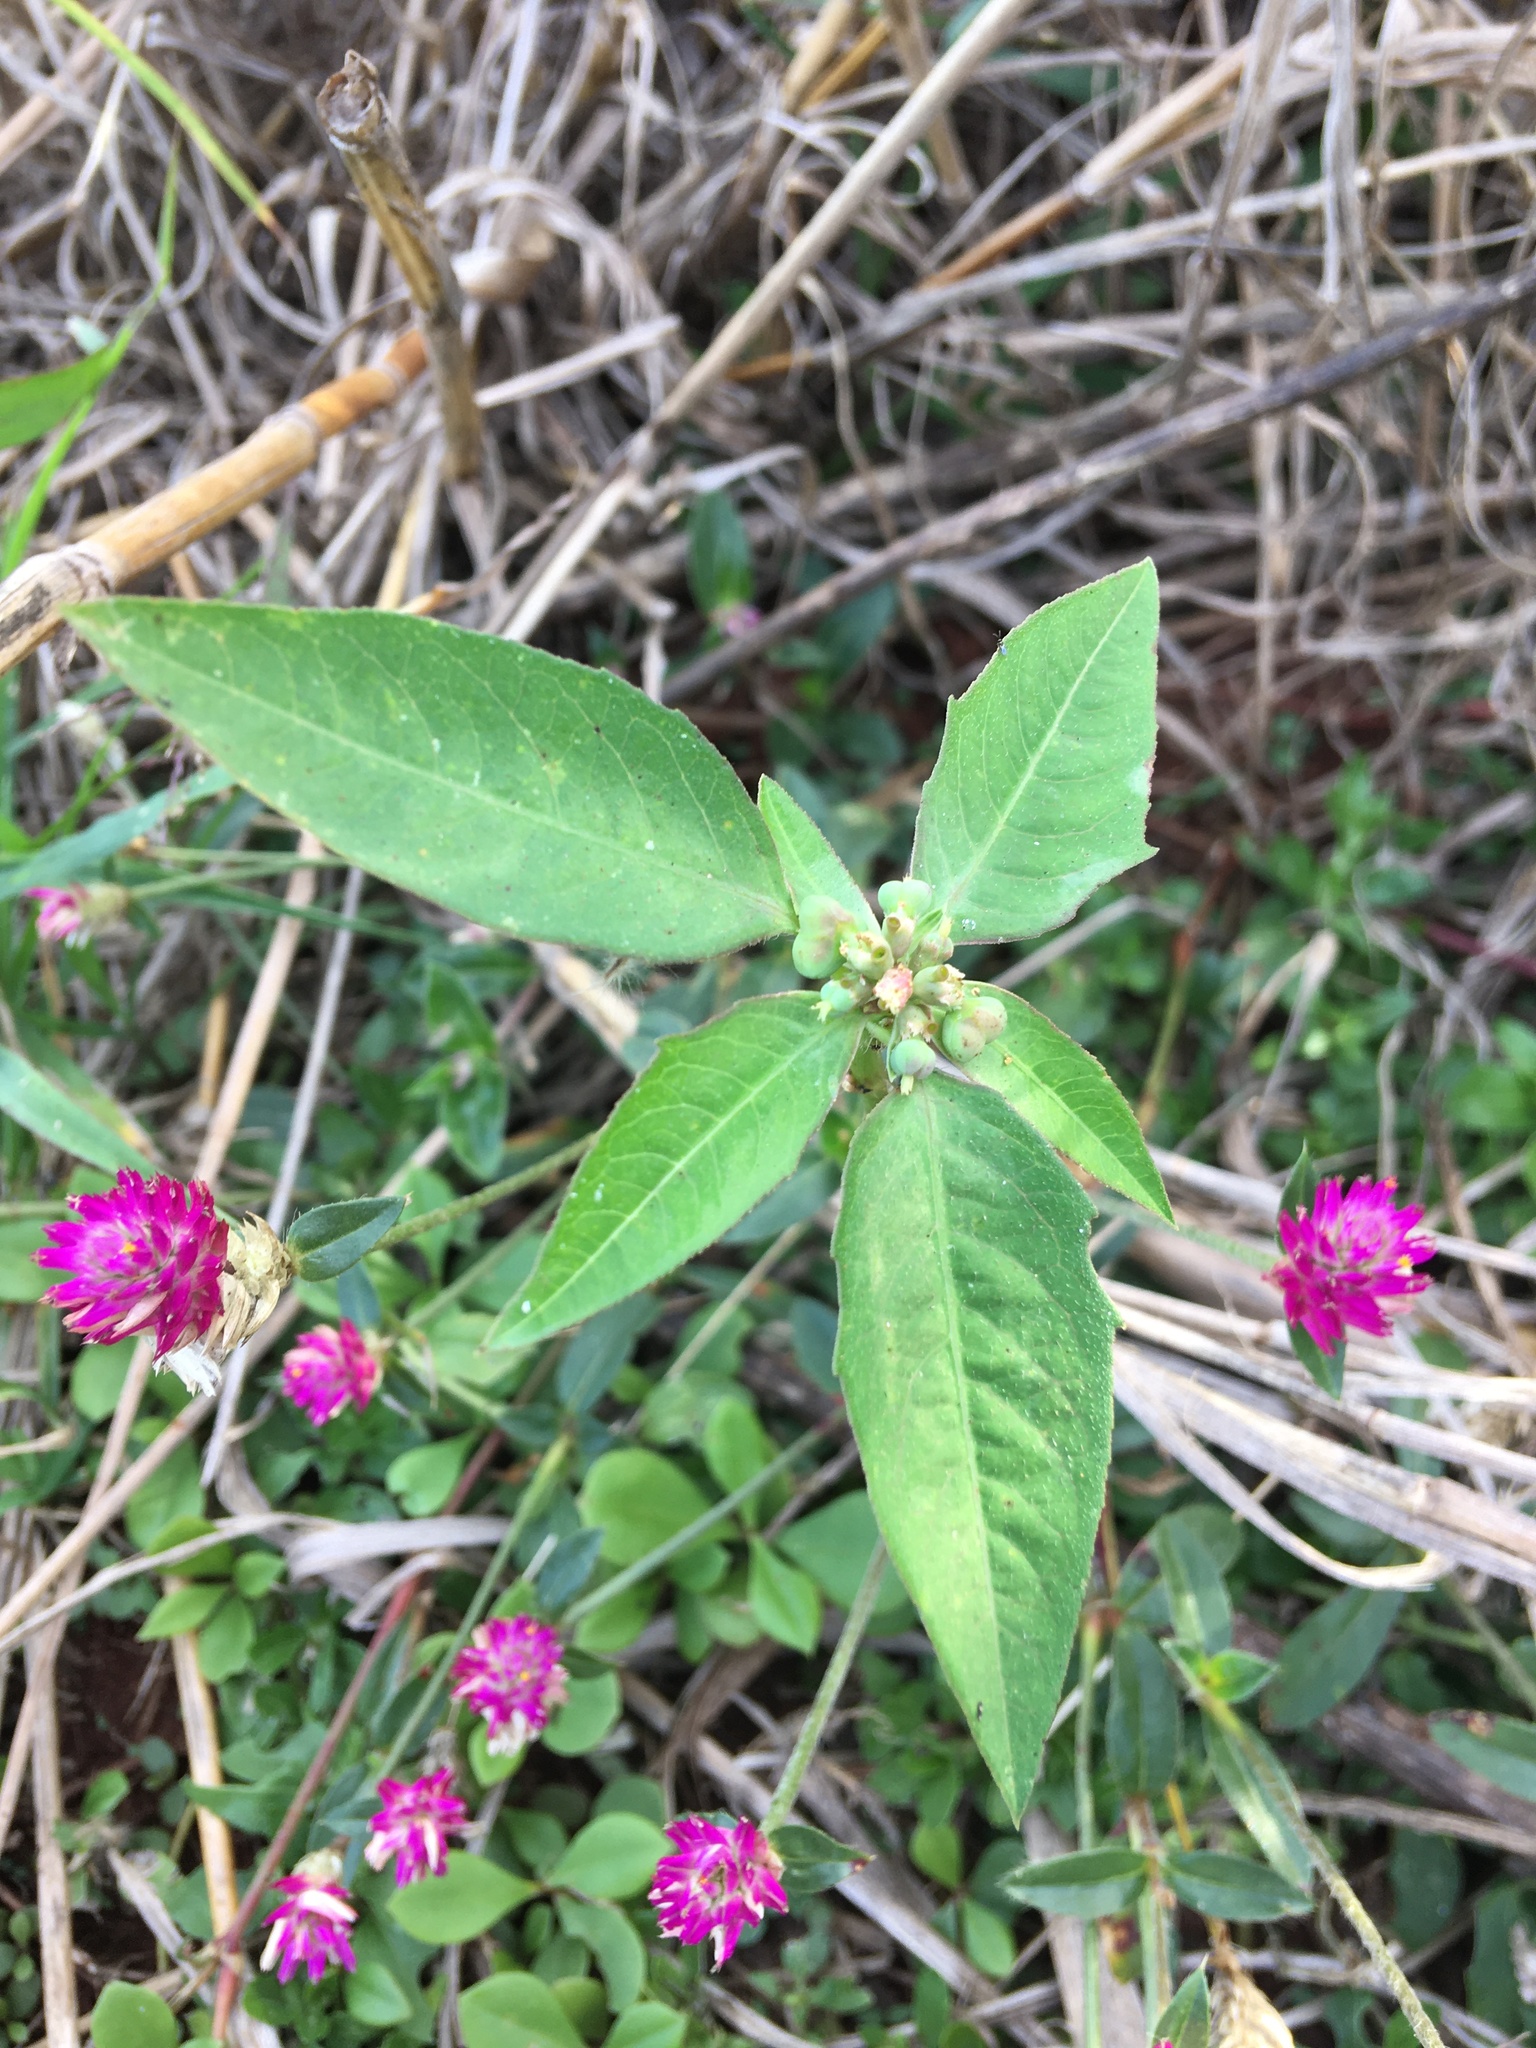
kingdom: Plantae
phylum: Tracheophyta
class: Magnoliopsida
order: Malpighiales
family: Euphorbiaceae
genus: Euphorbia
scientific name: Euphorbia heterophylla
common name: Mexican fireplant
